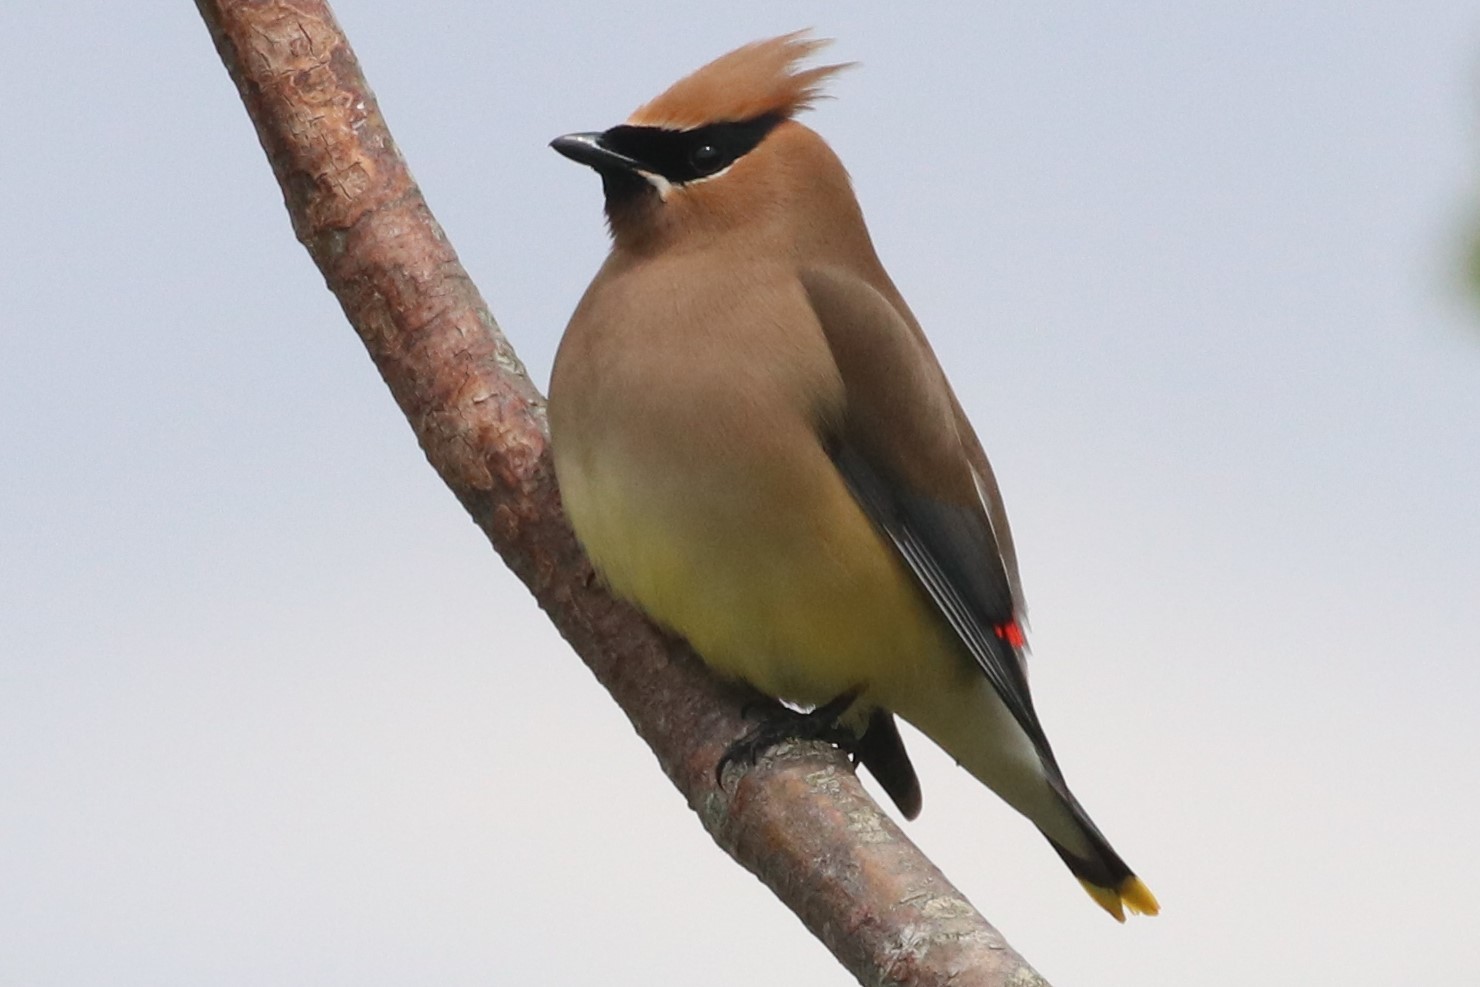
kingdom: Animalia
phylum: Chordata
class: Aves
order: Passeriformes
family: Bombycillidae
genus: Bombycilla
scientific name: Bombycilla cedrorum
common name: Cedar waxwing
